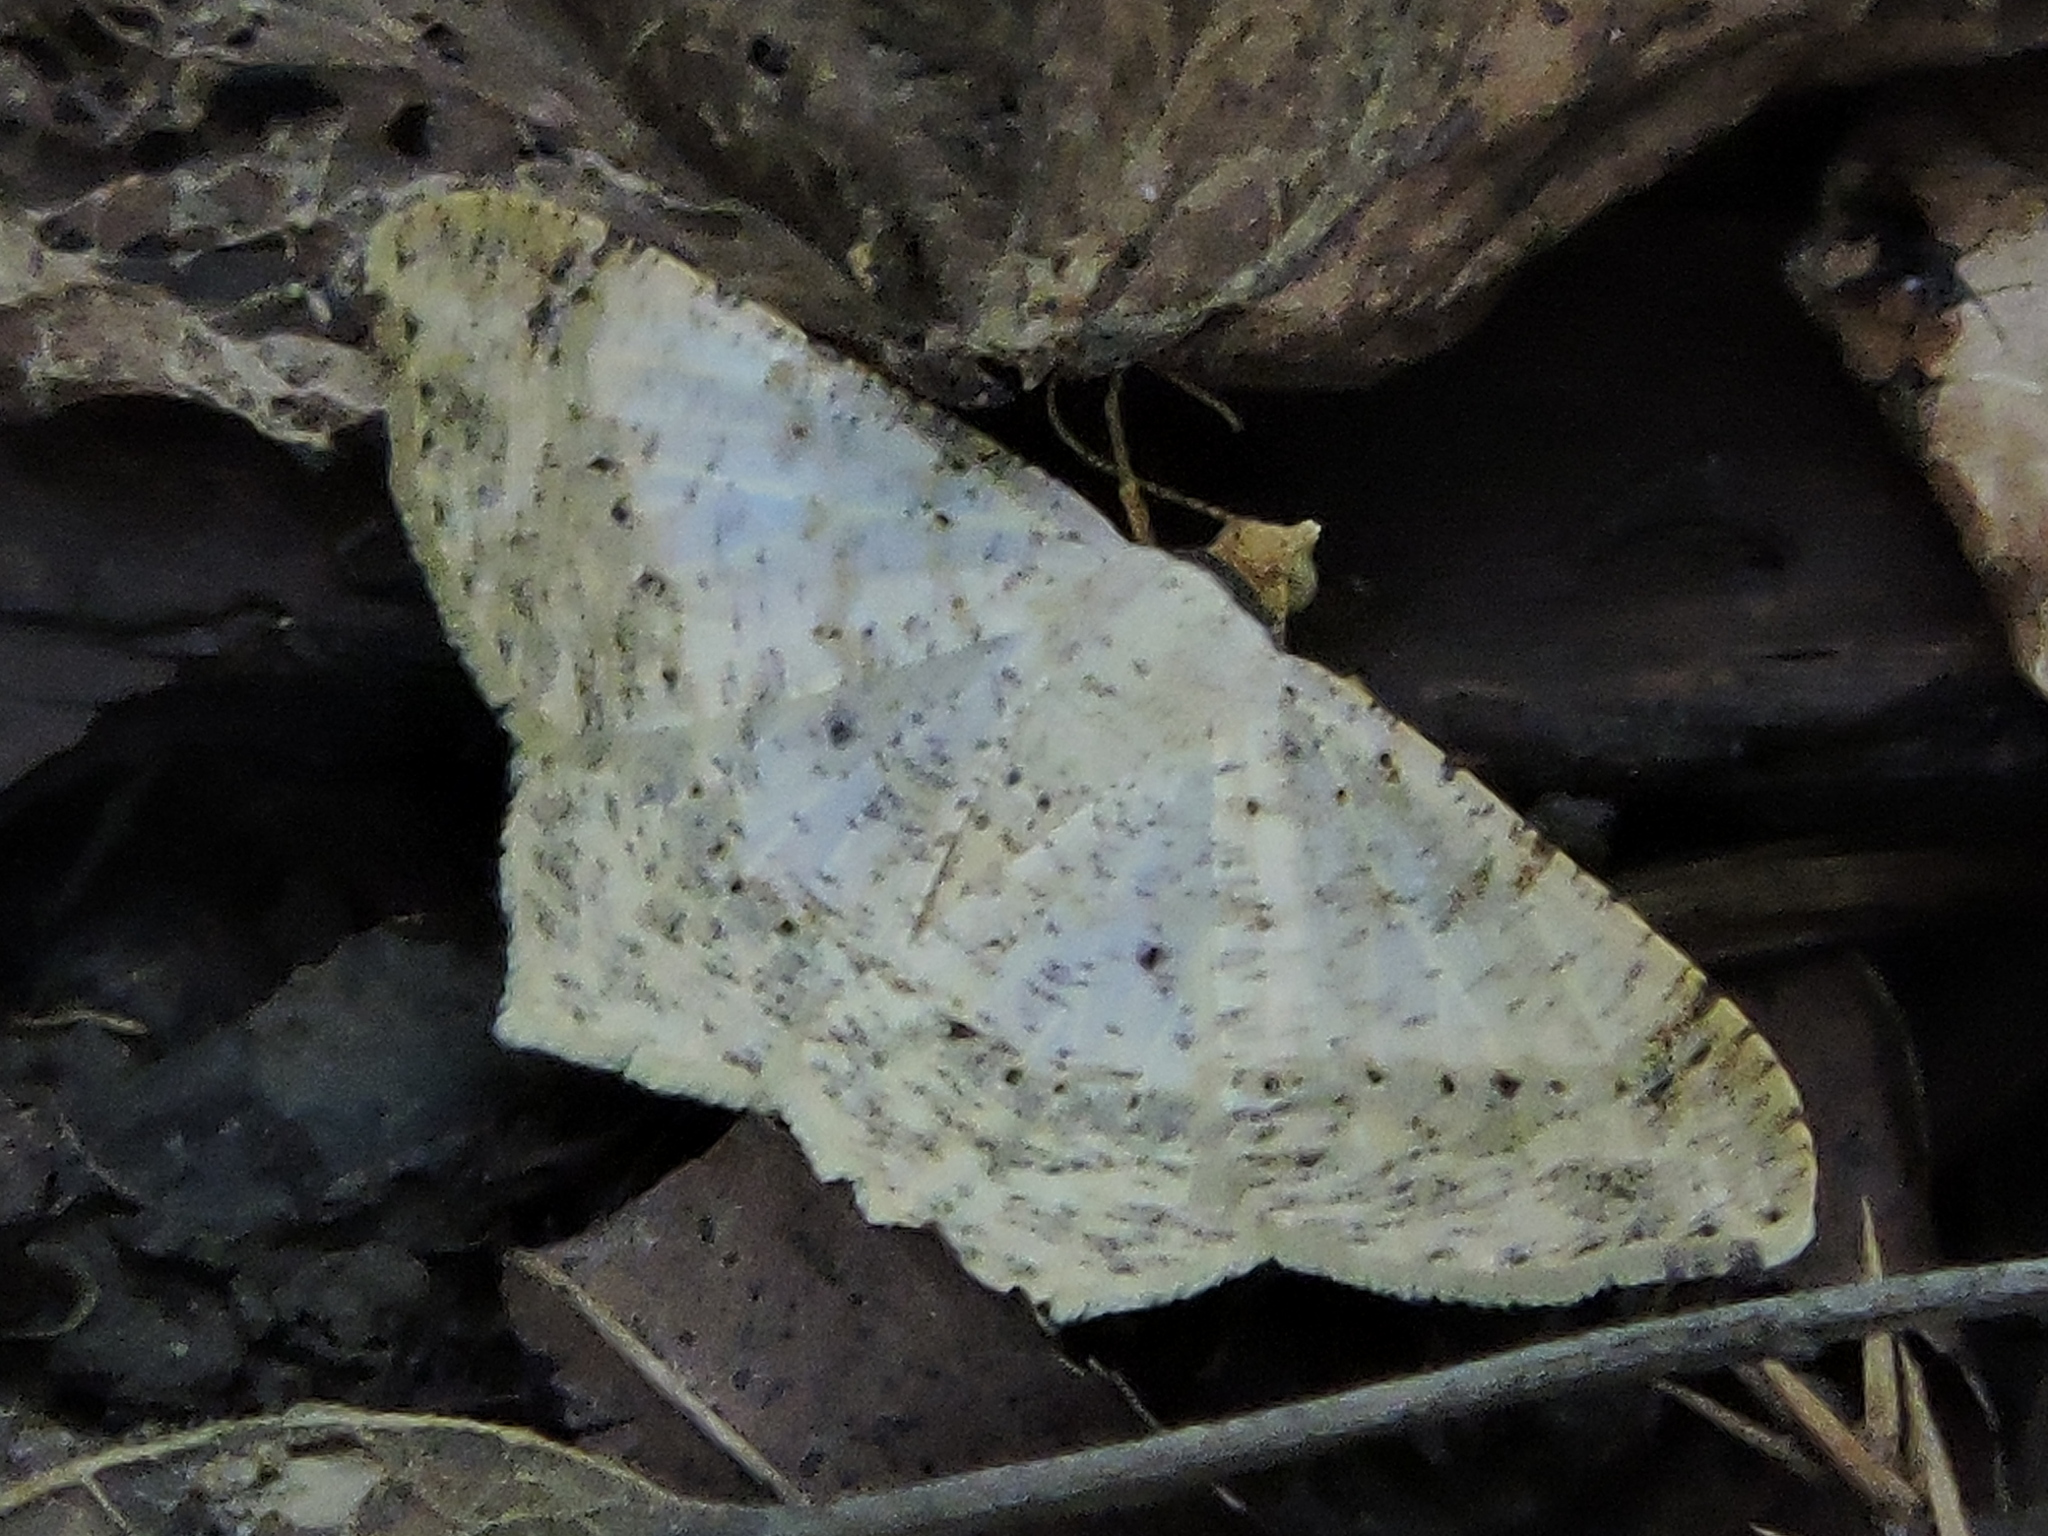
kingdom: Animalia
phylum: Arthropoda
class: Insecta
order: Lepidoptera
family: Geometridae
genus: Macaria
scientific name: Macaria abydata
